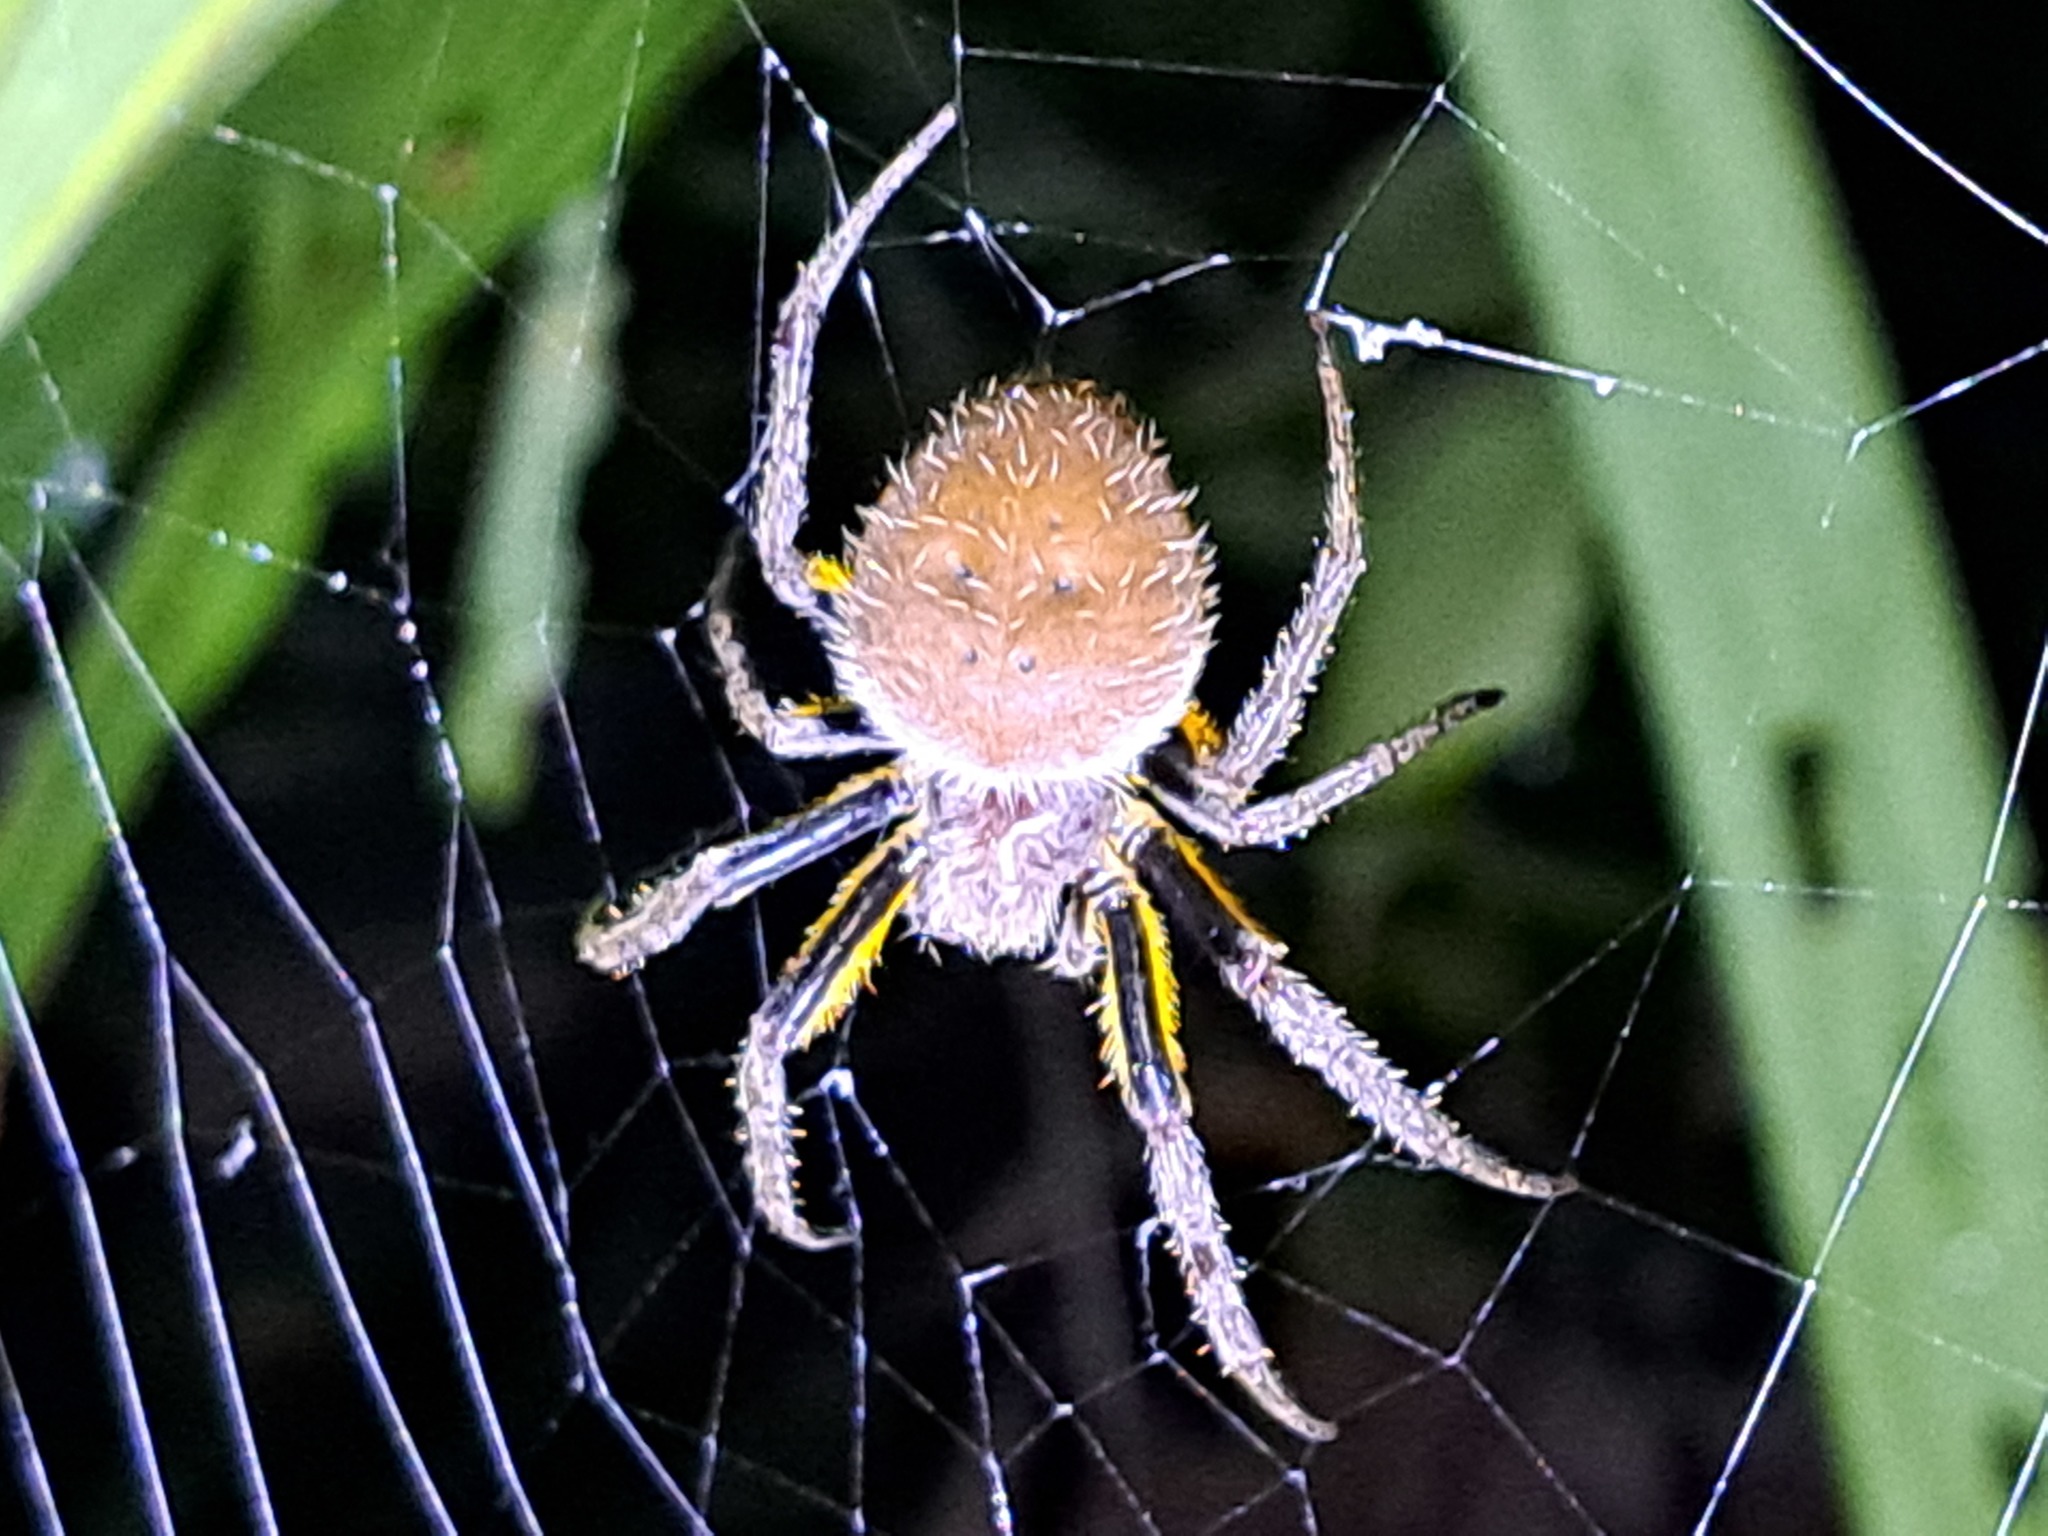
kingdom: Animalia
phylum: Arthropoda
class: Arachnida
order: Araneae
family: Araneidae
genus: Eriophora
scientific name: Eriophora fuliginea
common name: Orb weavers
